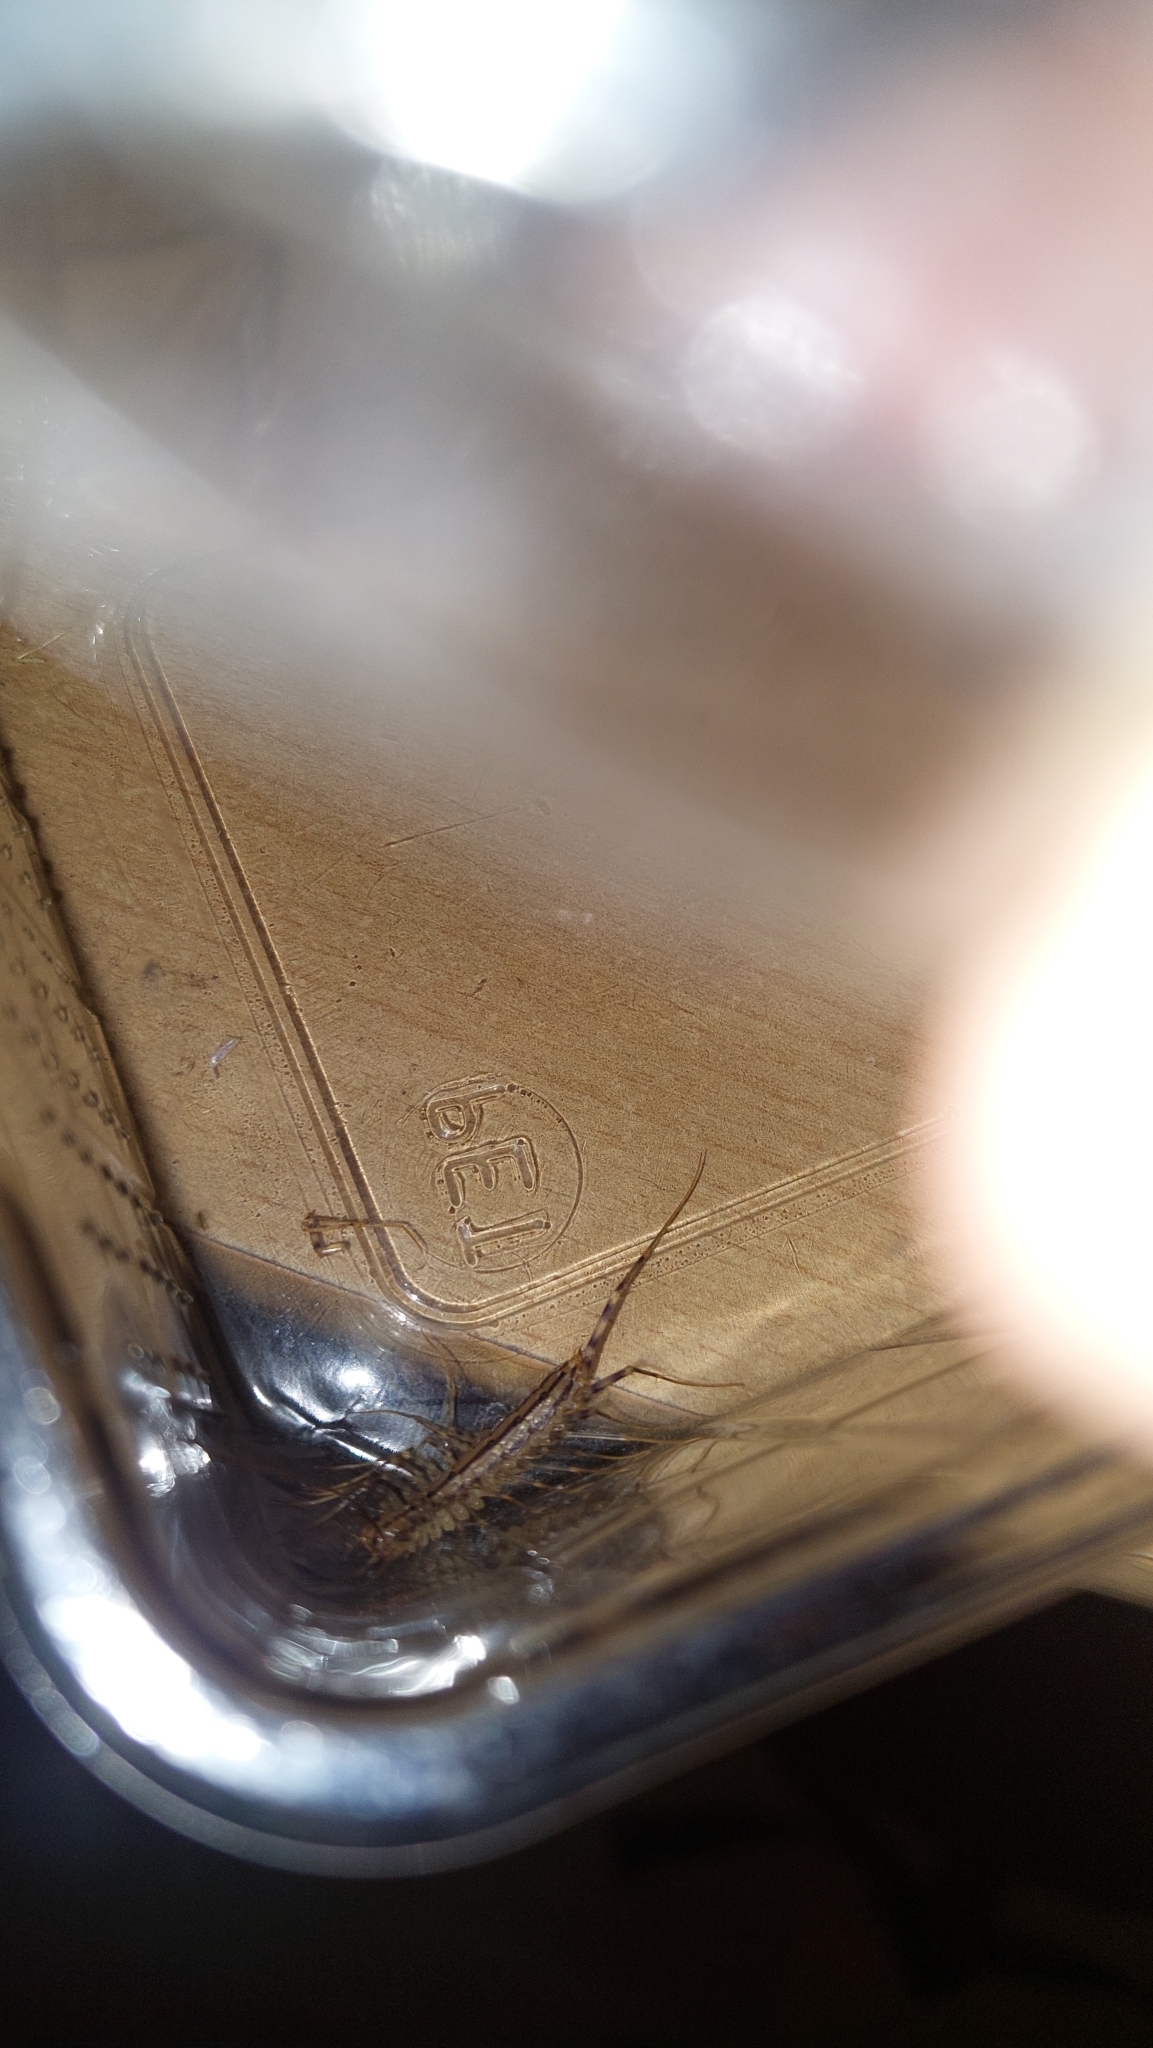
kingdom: Animalia
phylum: Arthropoda
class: Chilopoda
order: Scutigeromorpha
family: Scutigeridae
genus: Scutigera
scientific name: Scutigera coleoptrata
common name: House centipede
